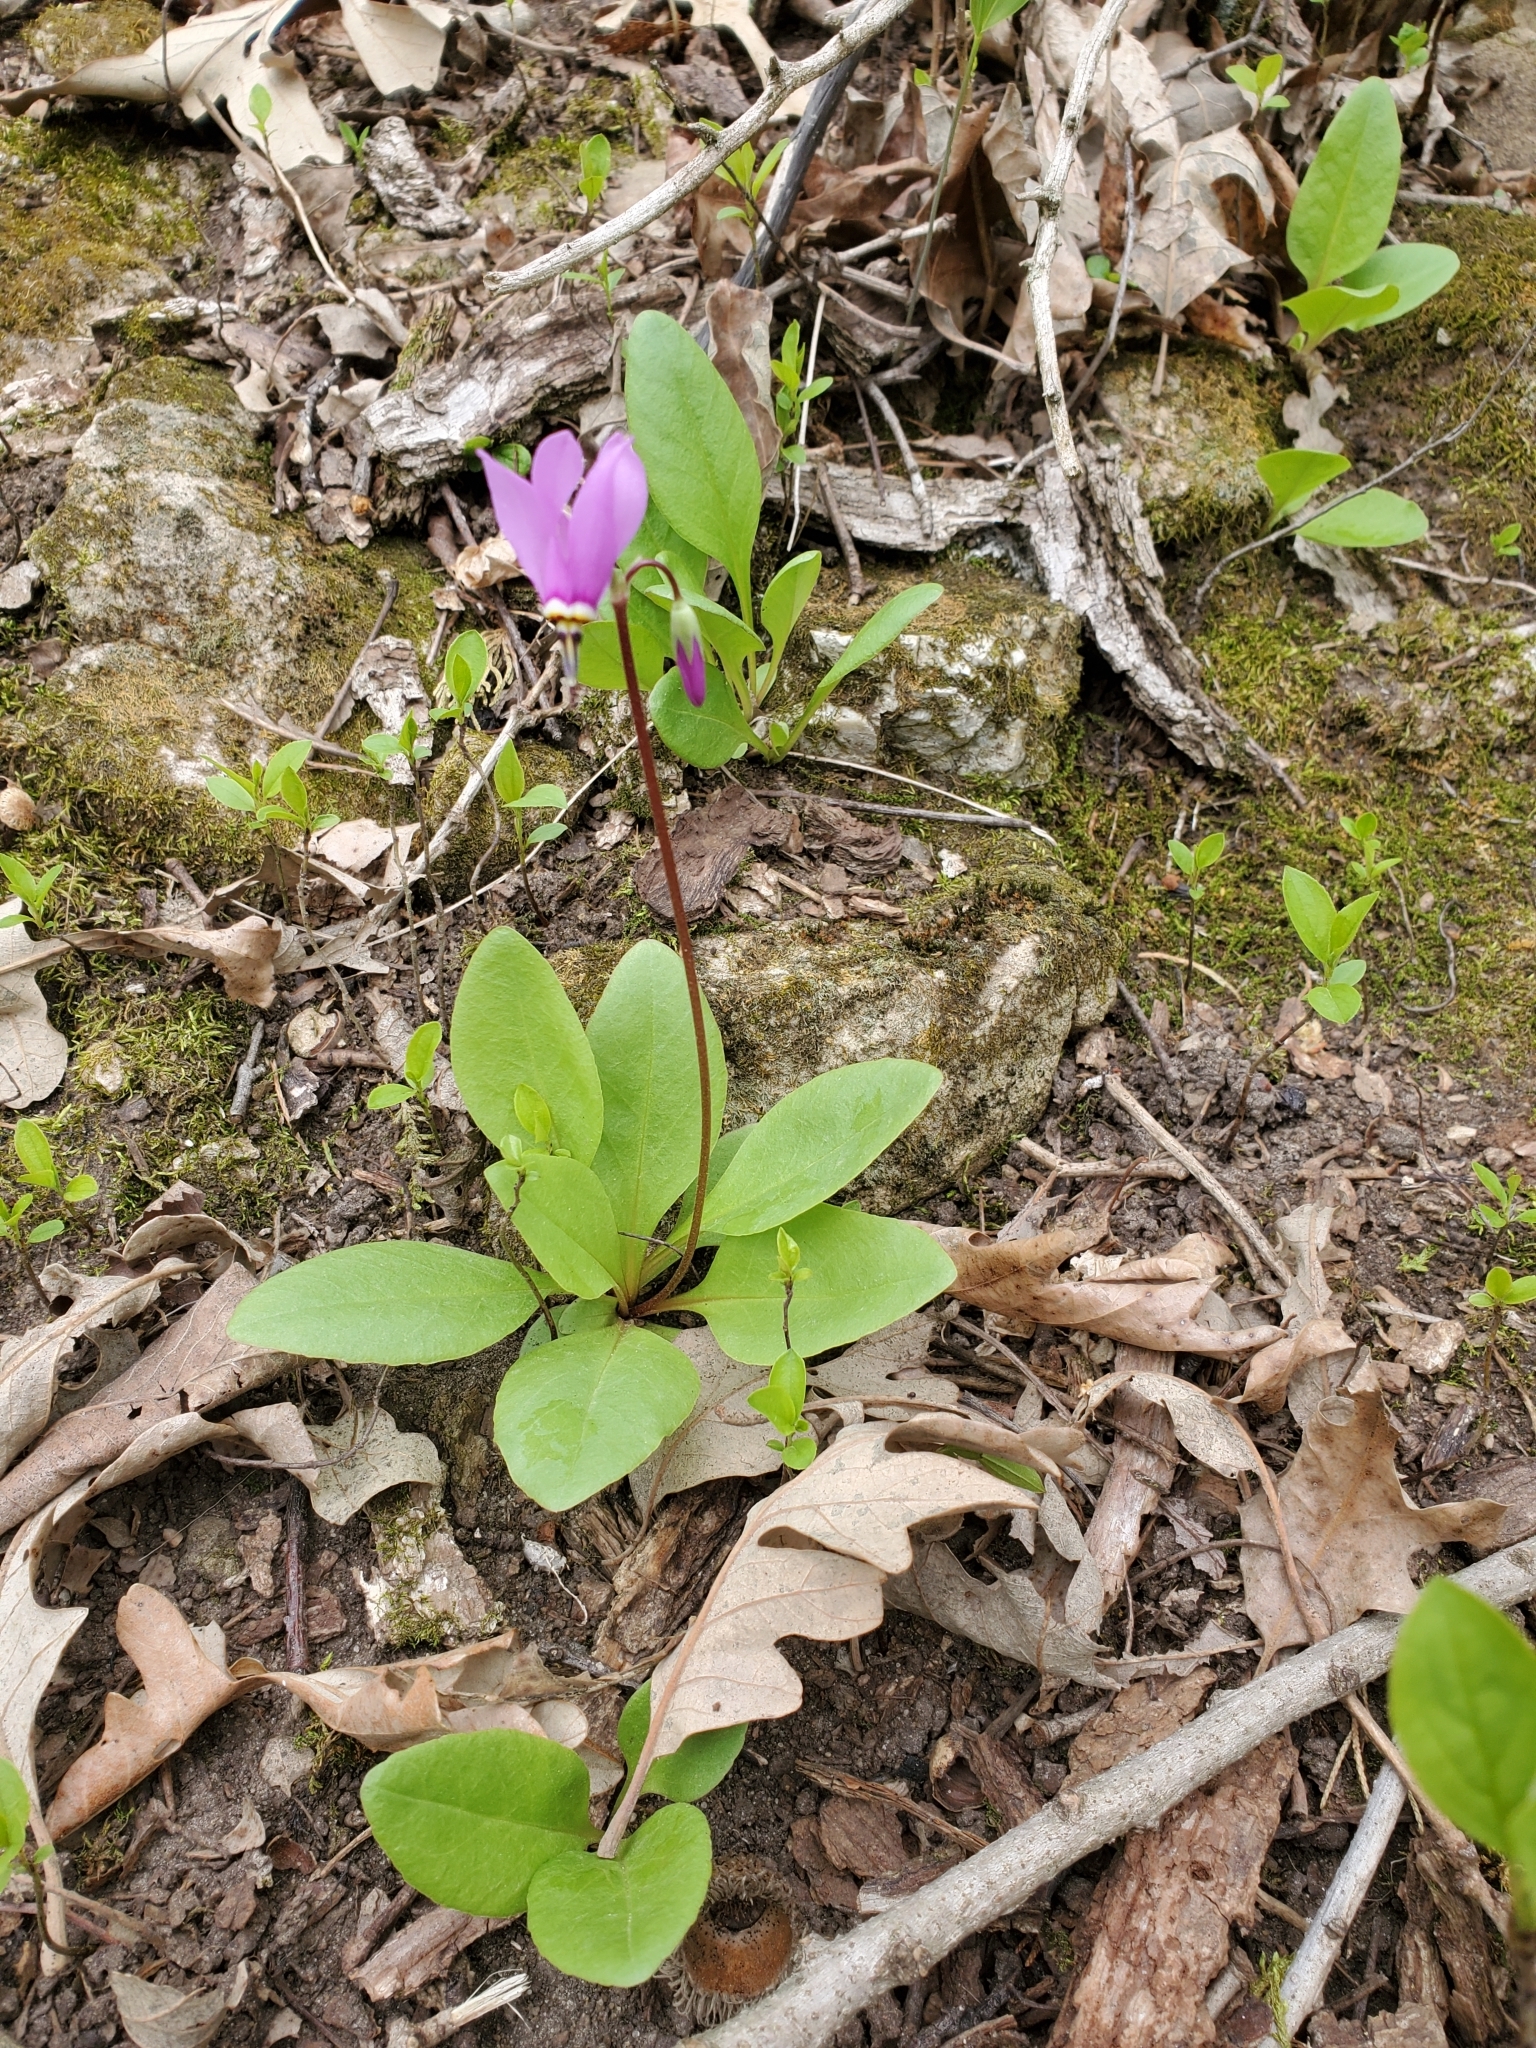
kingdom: Plantae
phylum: Tracheophyta
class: Magnoliopsida
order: Ericales
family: Primulaceae
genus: Dodecatheon
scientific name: Dodecatheon amethystinum
